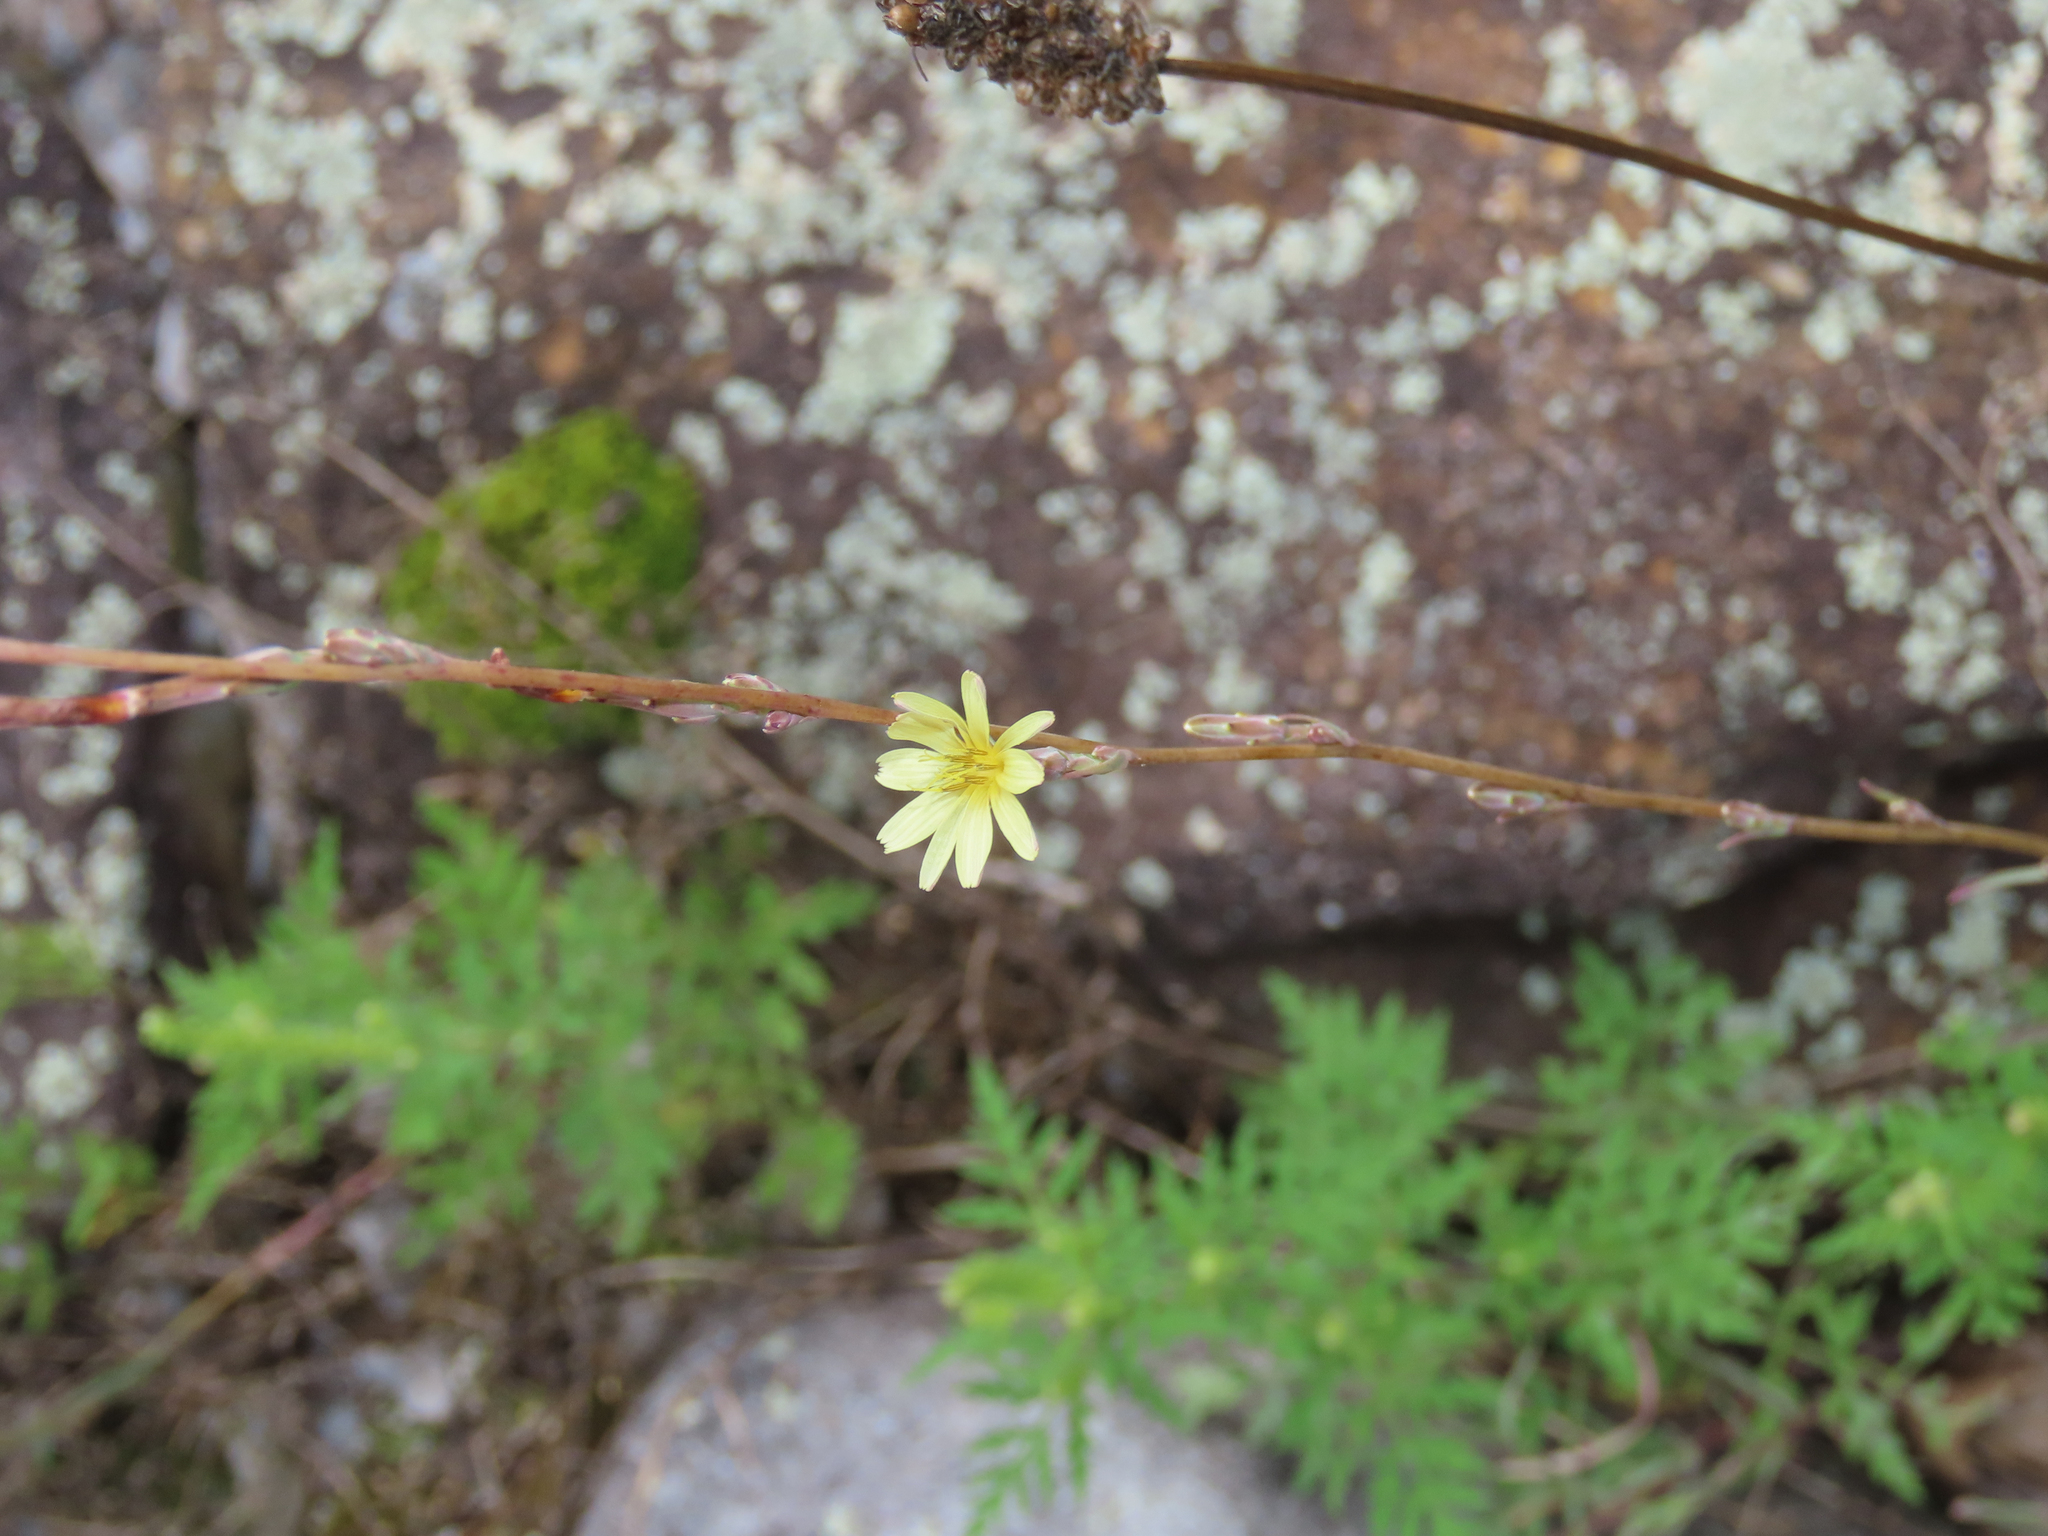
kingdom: Plantae
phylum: Tracheophyta
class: Magnoliopsida
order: Asterales
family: Asteraceae
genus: Lactuca
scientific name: Lactuca saligna
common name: Wild lettuce
